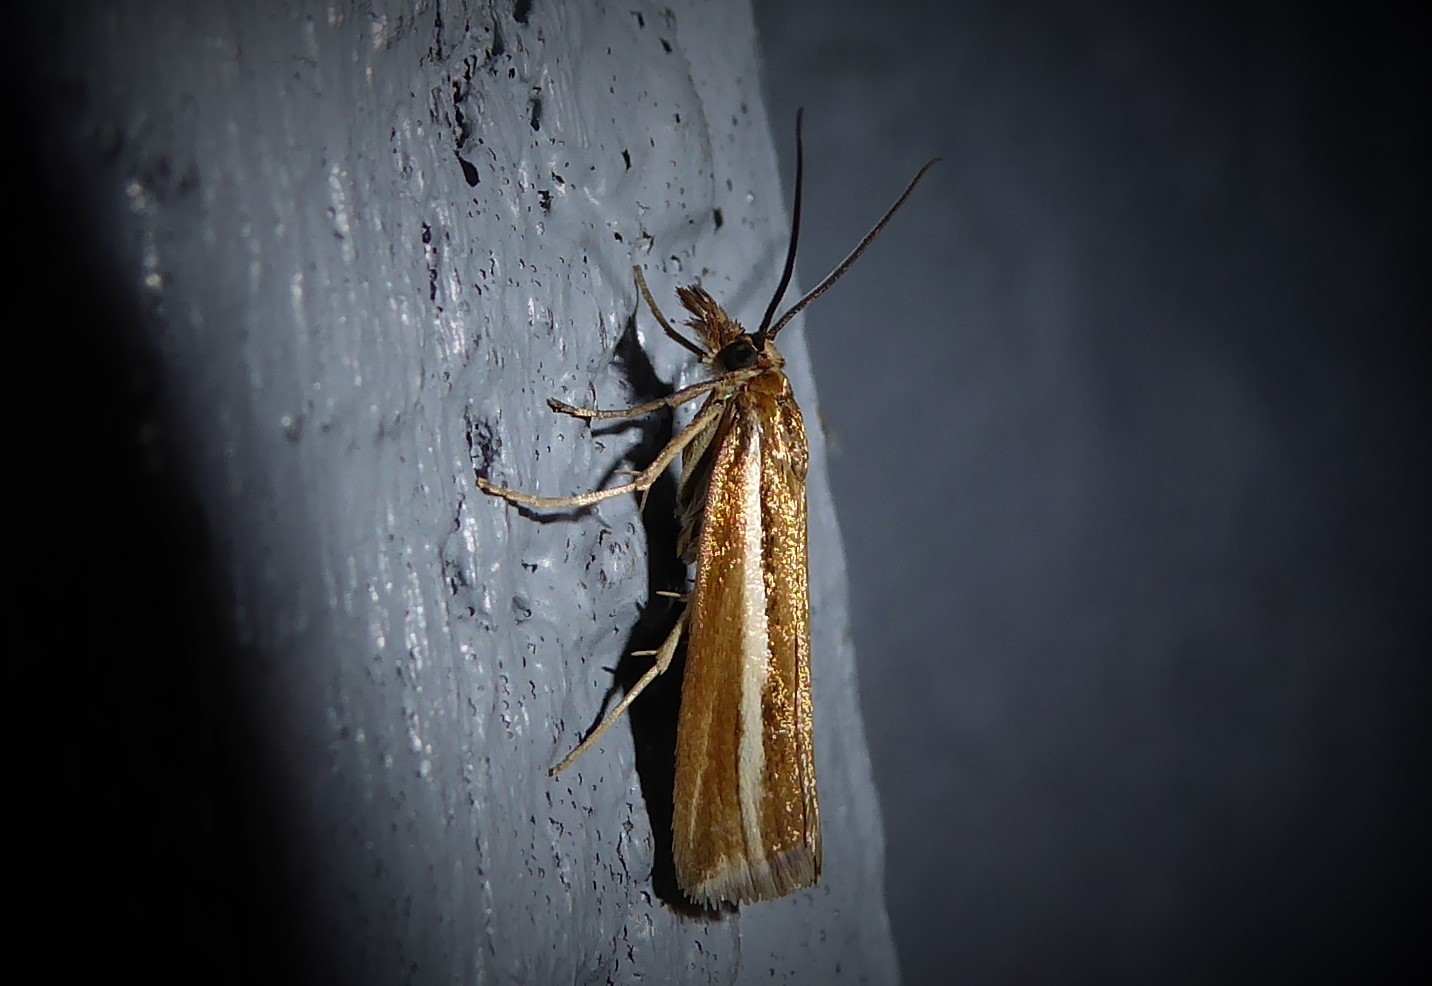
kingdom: Animalia
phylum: Arthropoda
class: Insecta
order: Lepidoptera
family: Crambidae
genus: Orocrambus
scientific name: Orocrambus aethonellus
